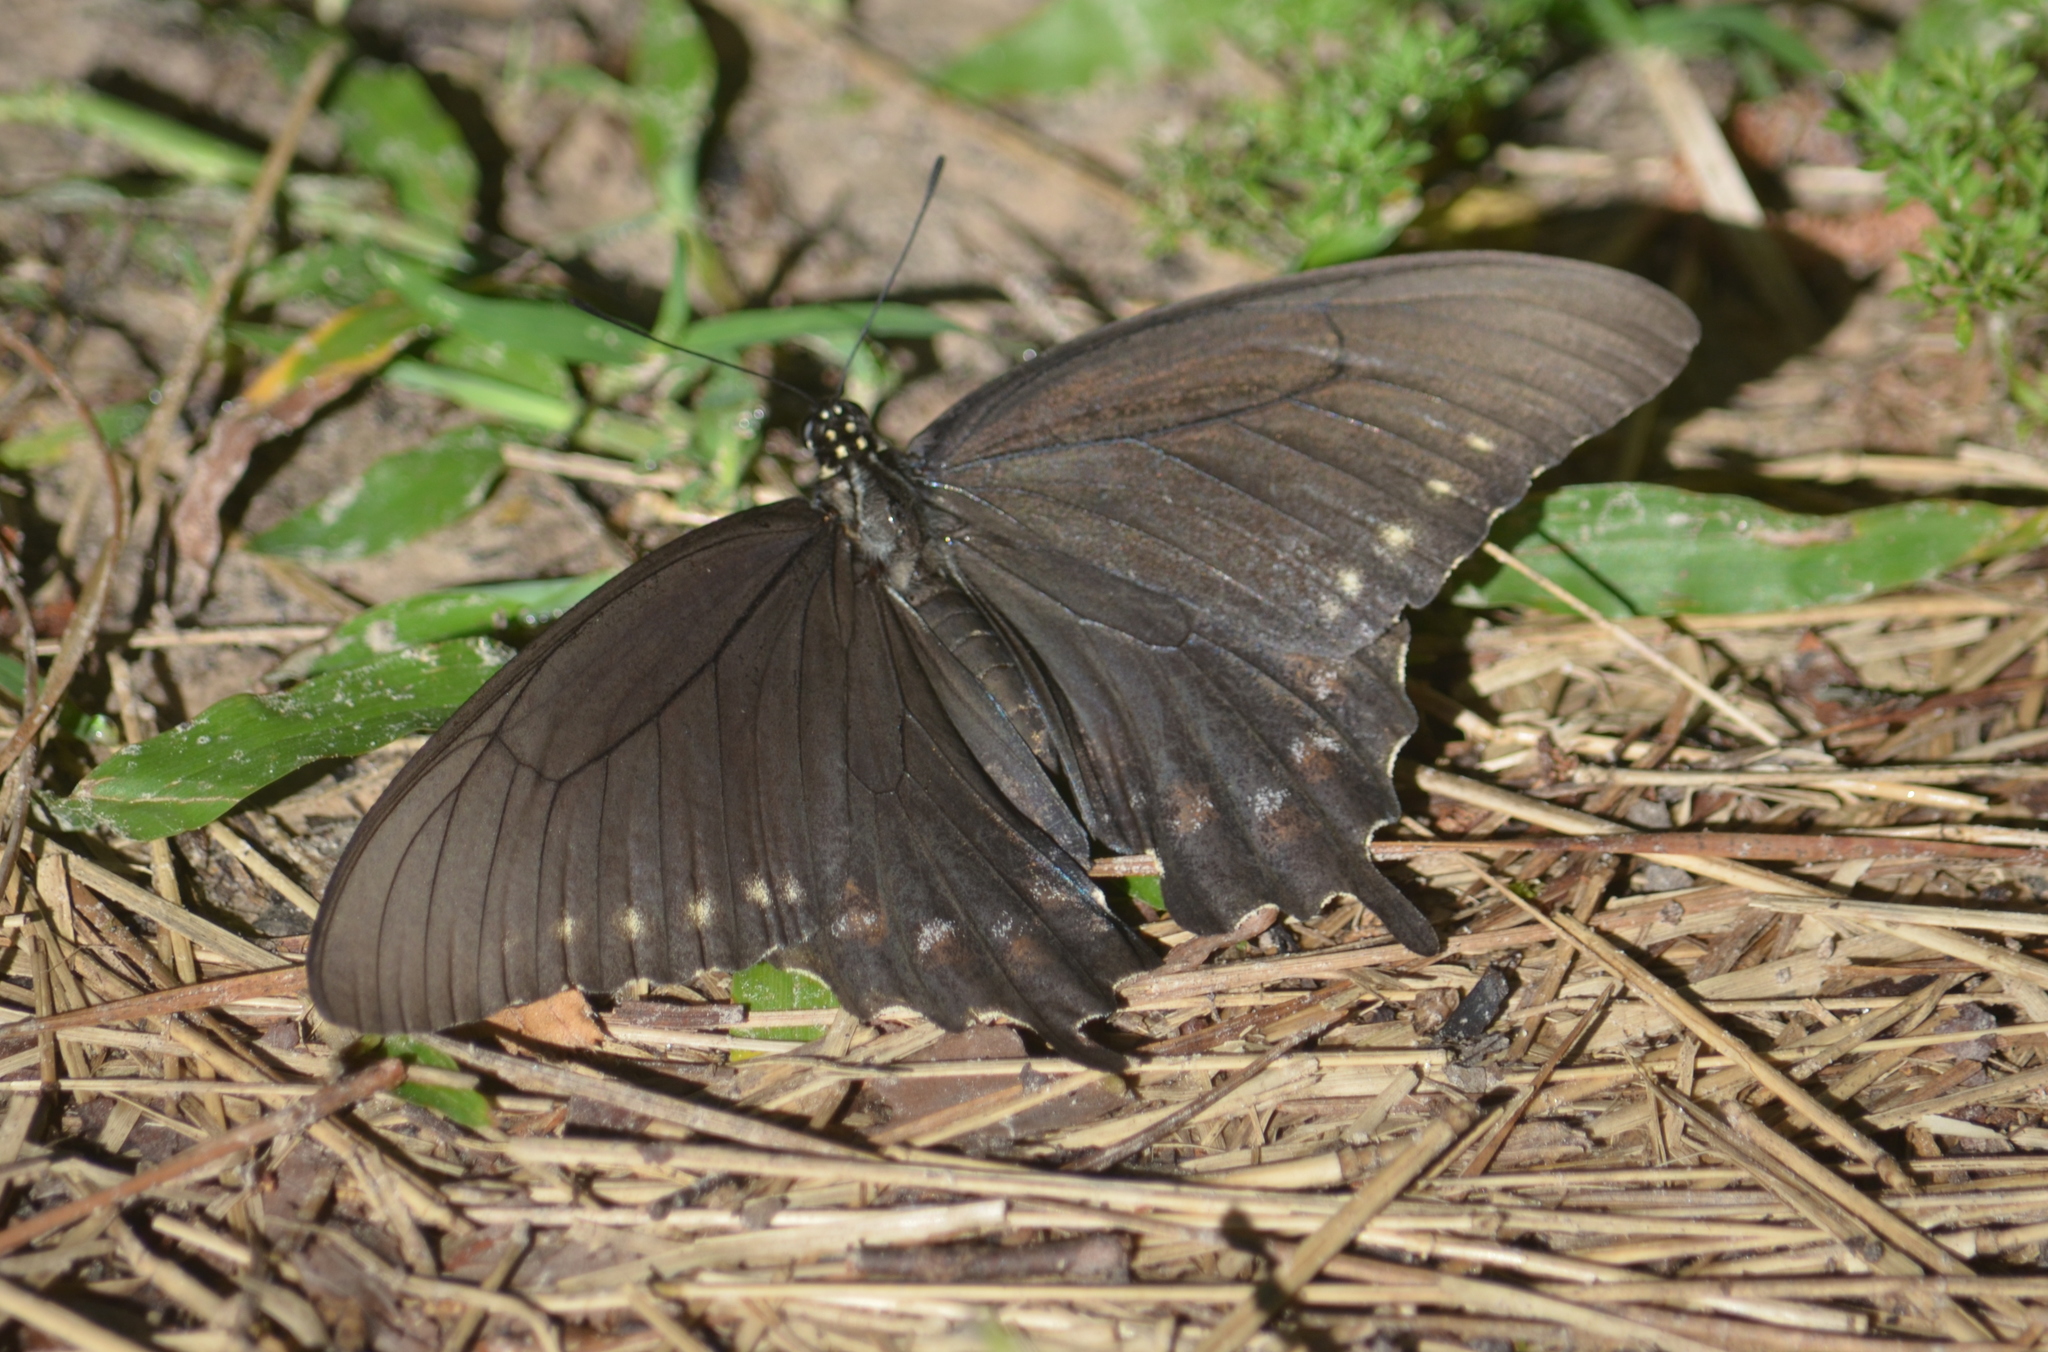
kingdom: Animalia
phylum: Arthropoda
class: Insecta
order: Lepidoptera
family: Papilionidae
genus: Battus
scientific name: Battus philenor
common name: Pipevine swallowtail
